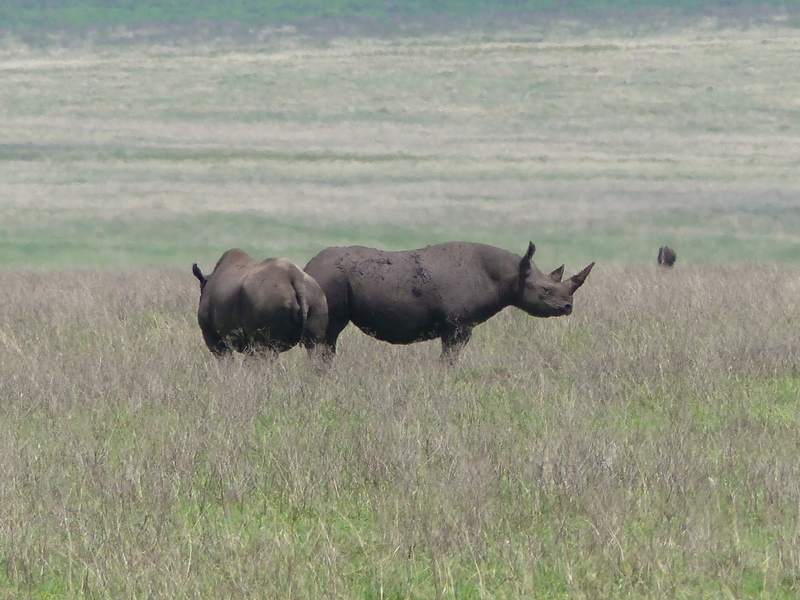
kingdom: Animalia
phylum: Chordata
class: Mammalia
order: Perissodactyla
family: Rhinocerotidae
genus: Diceros
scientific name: Diceros bicornis
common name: Black rhinoceros
